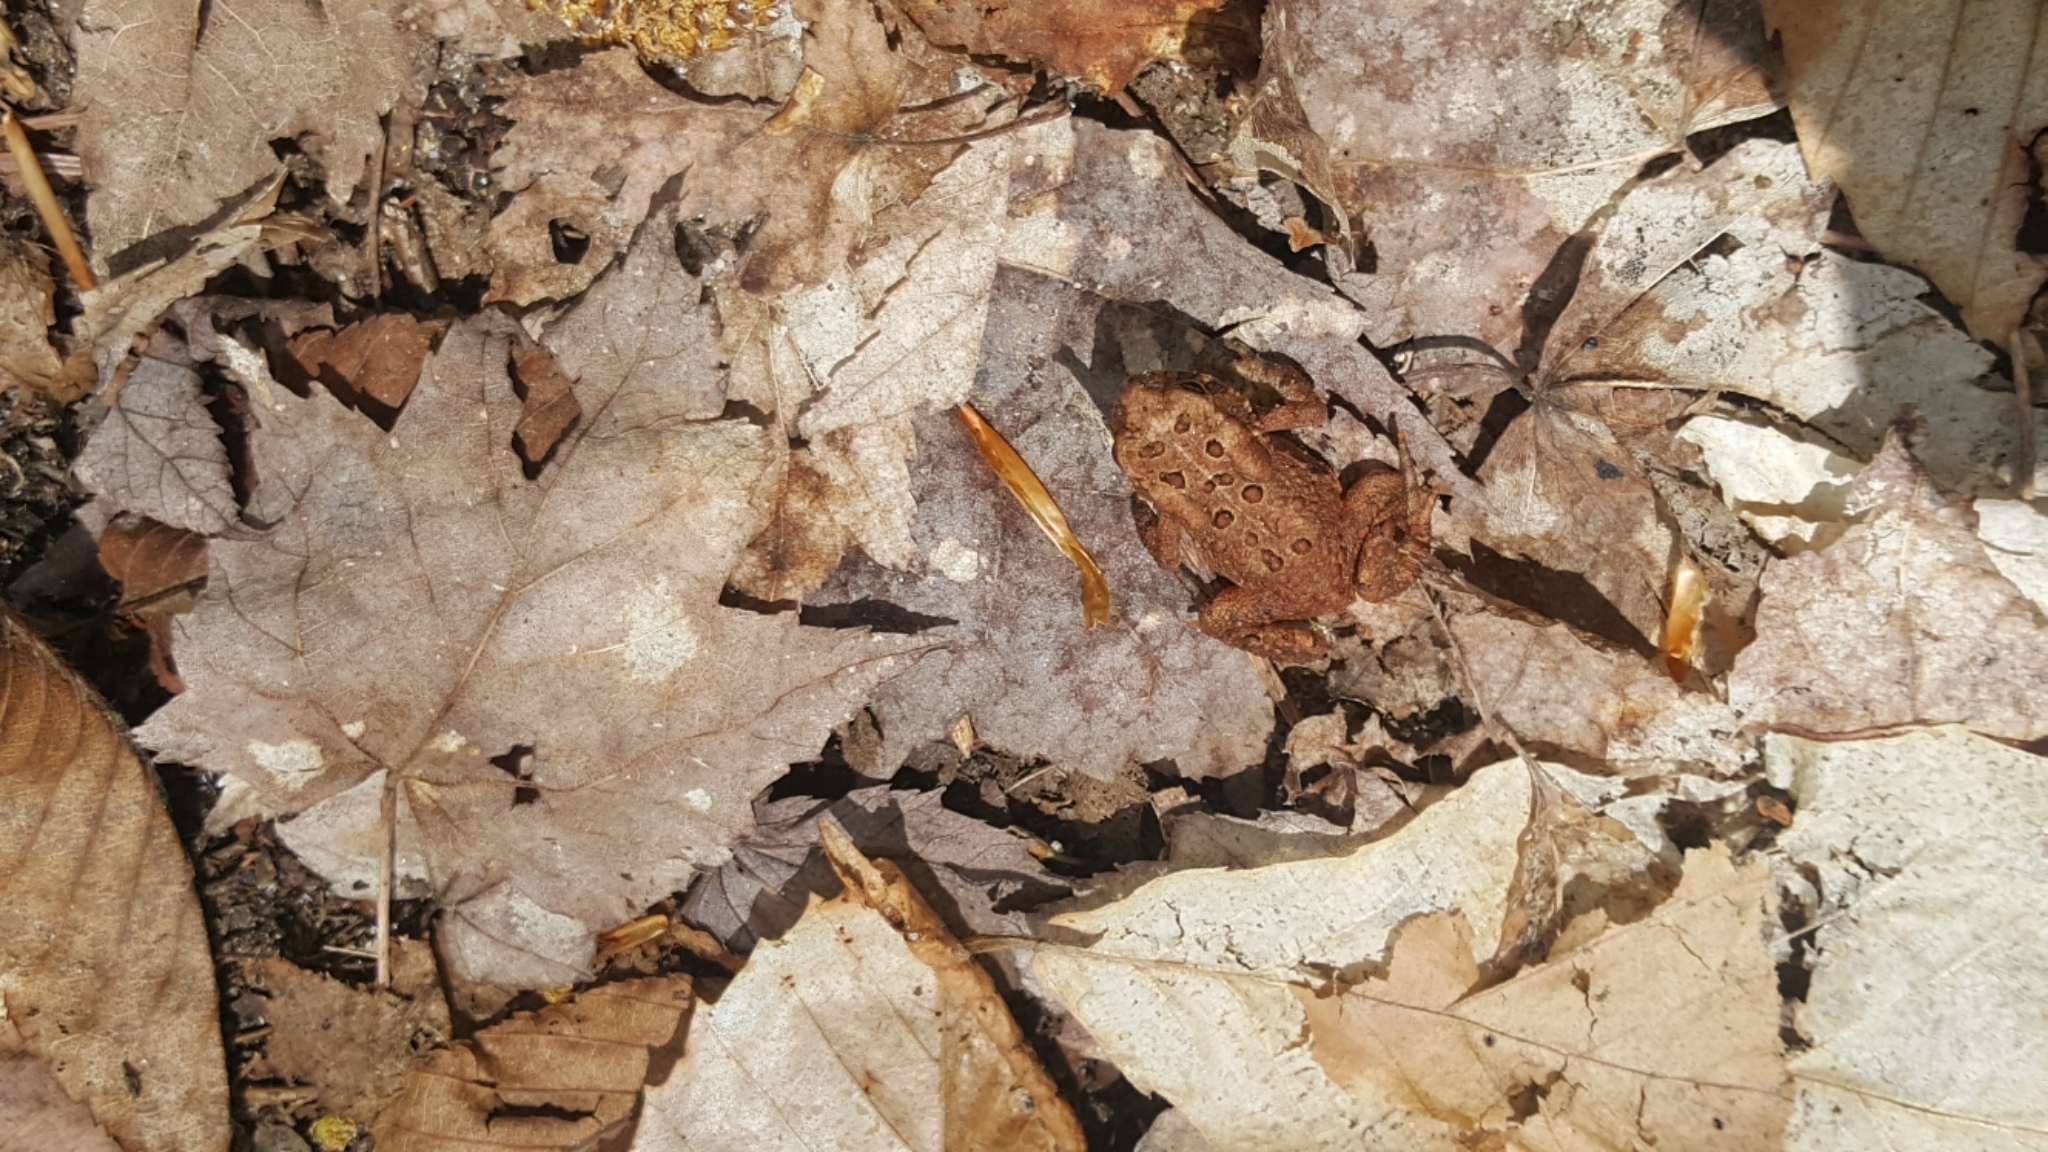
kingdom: Animalia
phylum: Chordata
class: Amphibia
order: Anura
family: Bufonidae
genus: Anaxyrus
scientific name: Anaxyrus americanus
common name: American toad
